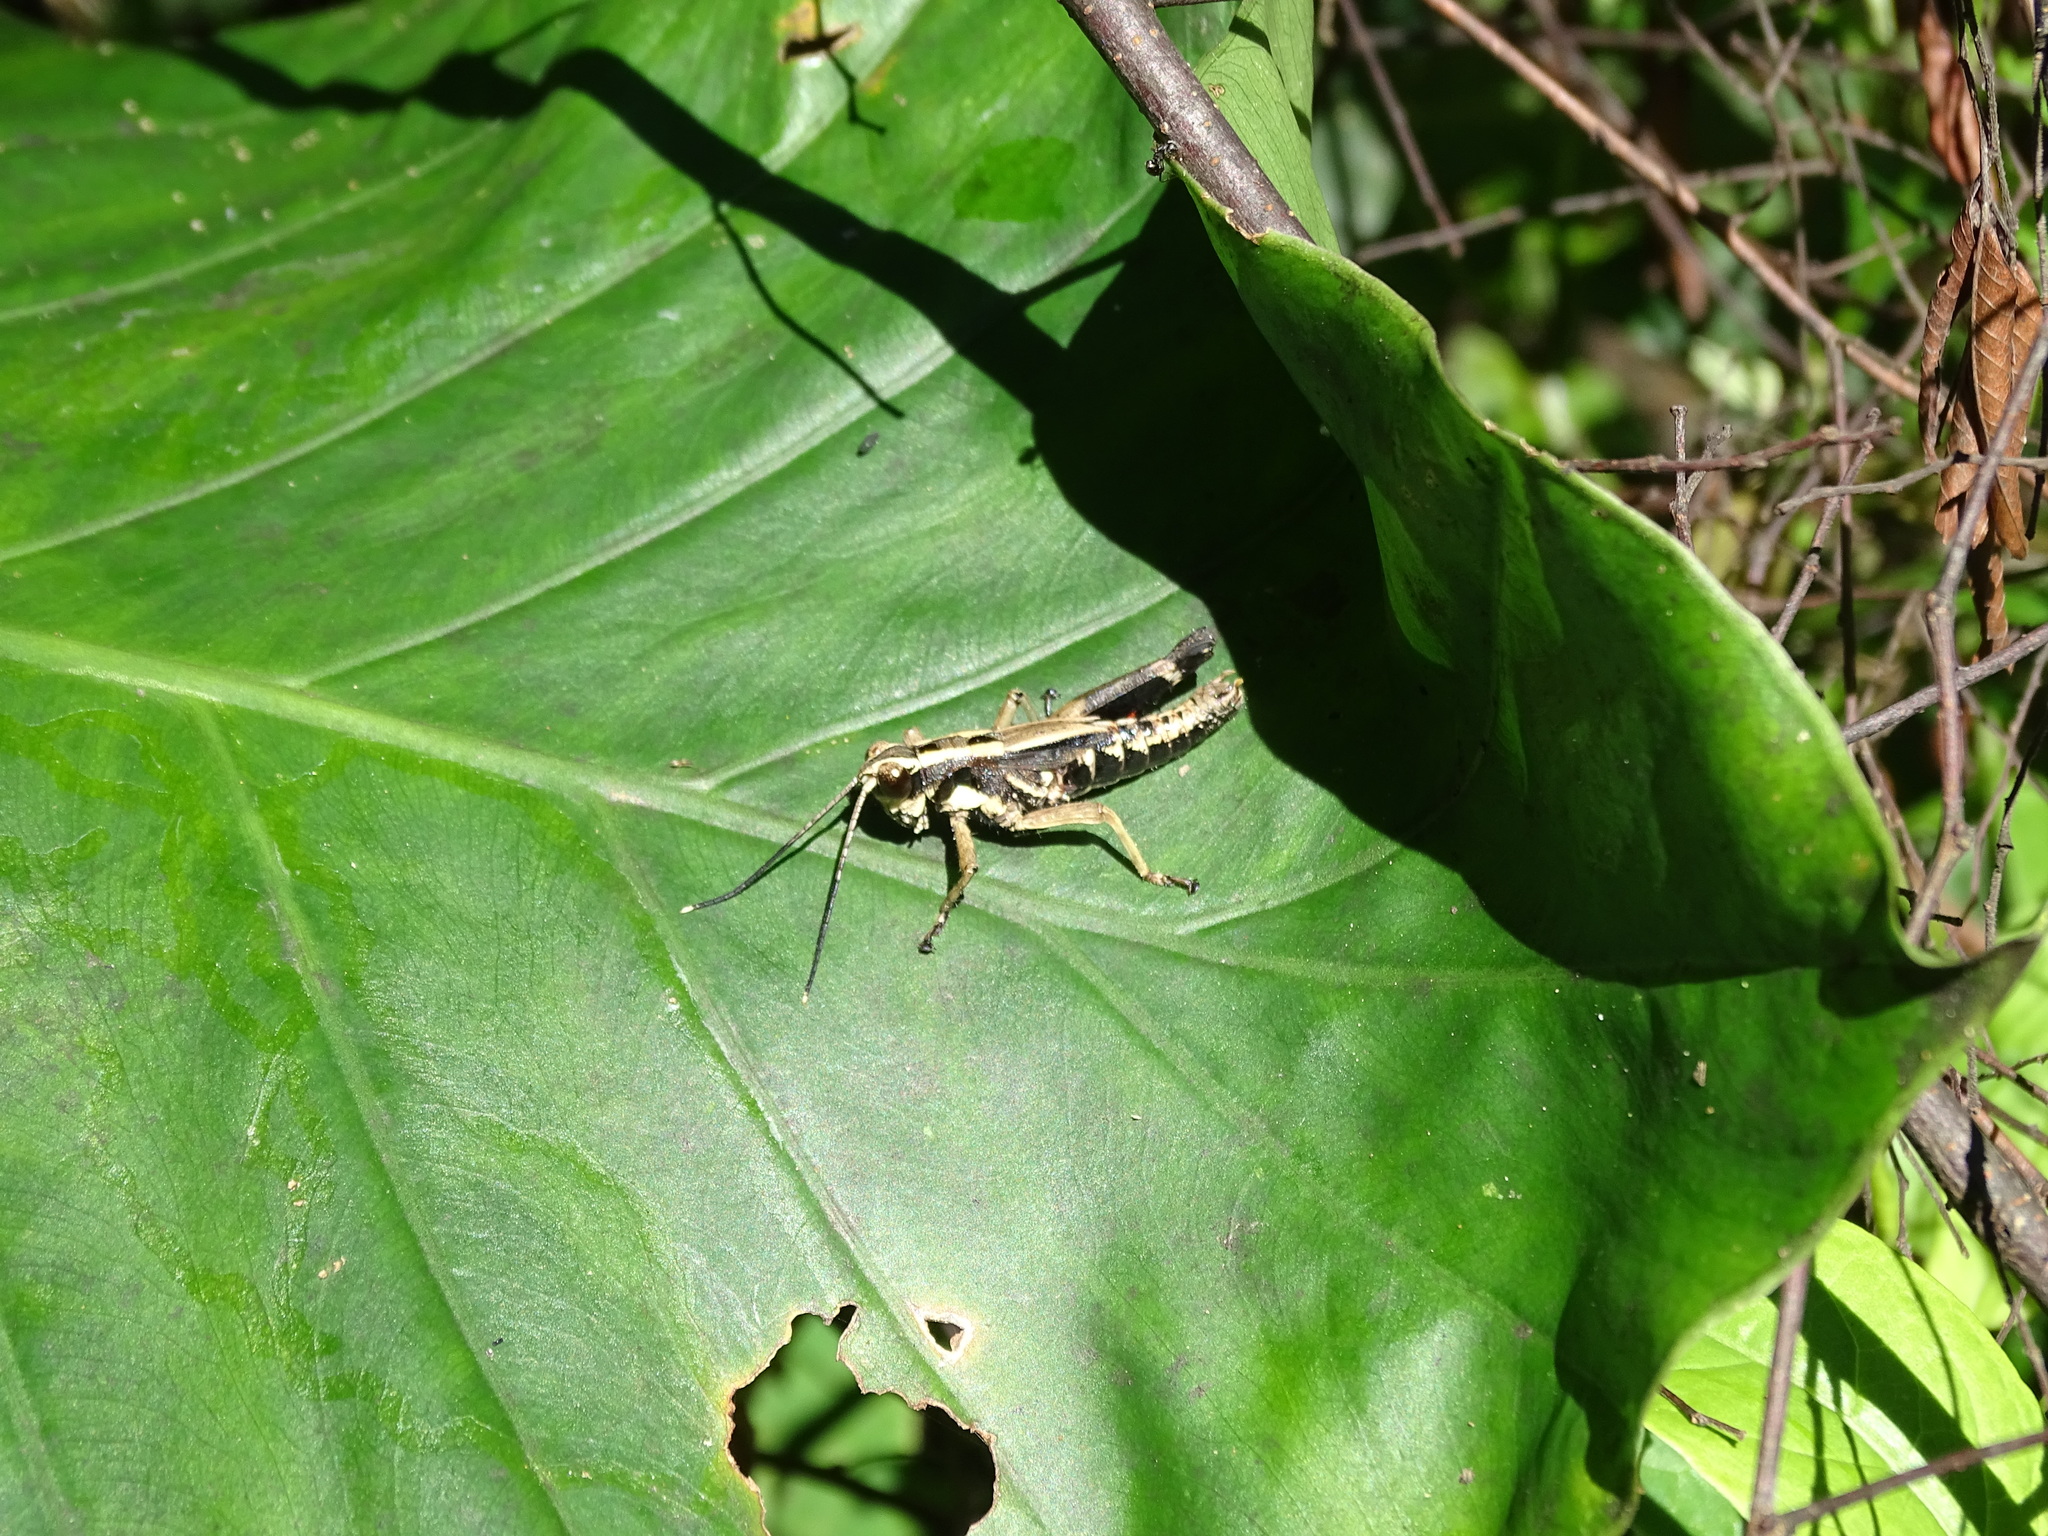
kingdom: Animalia
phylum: Arthropoda
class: Insecta
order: Orthoptera
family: Acrididae
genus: Traulia
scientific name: Traulia ornata
